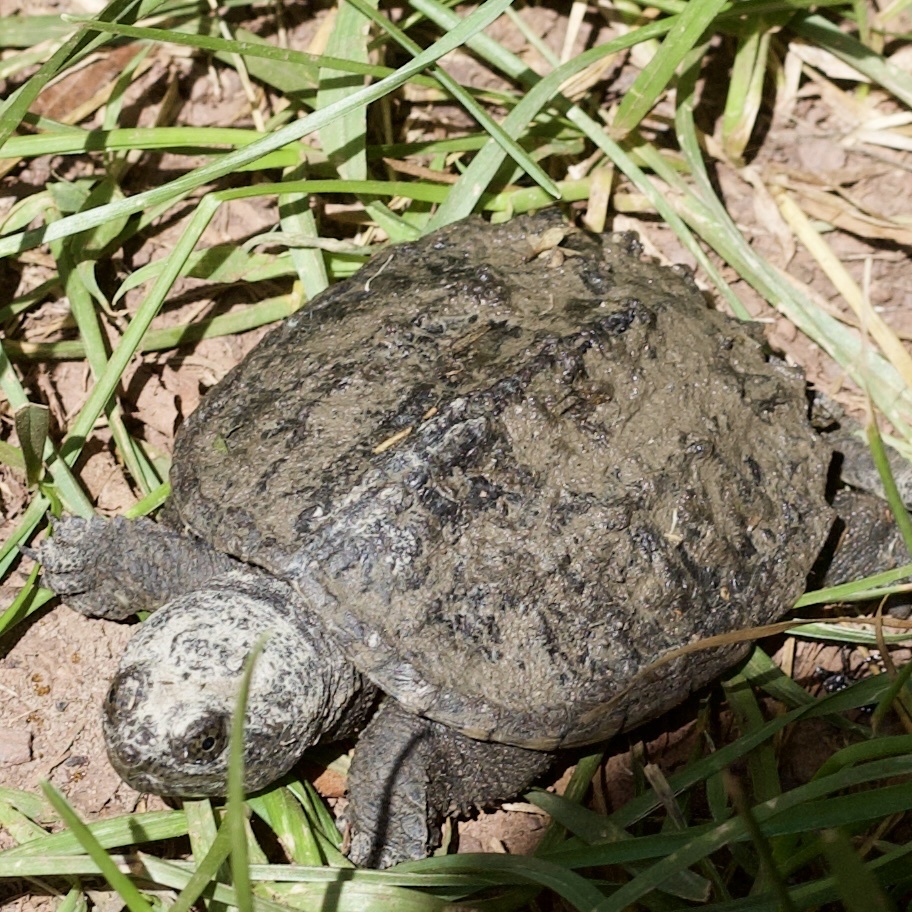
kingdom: Animalia
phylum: Chordata
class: Testudines
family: Chelydridae
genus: Chelydra
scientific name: Chelydra serpentina
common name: Common snapping turtle
